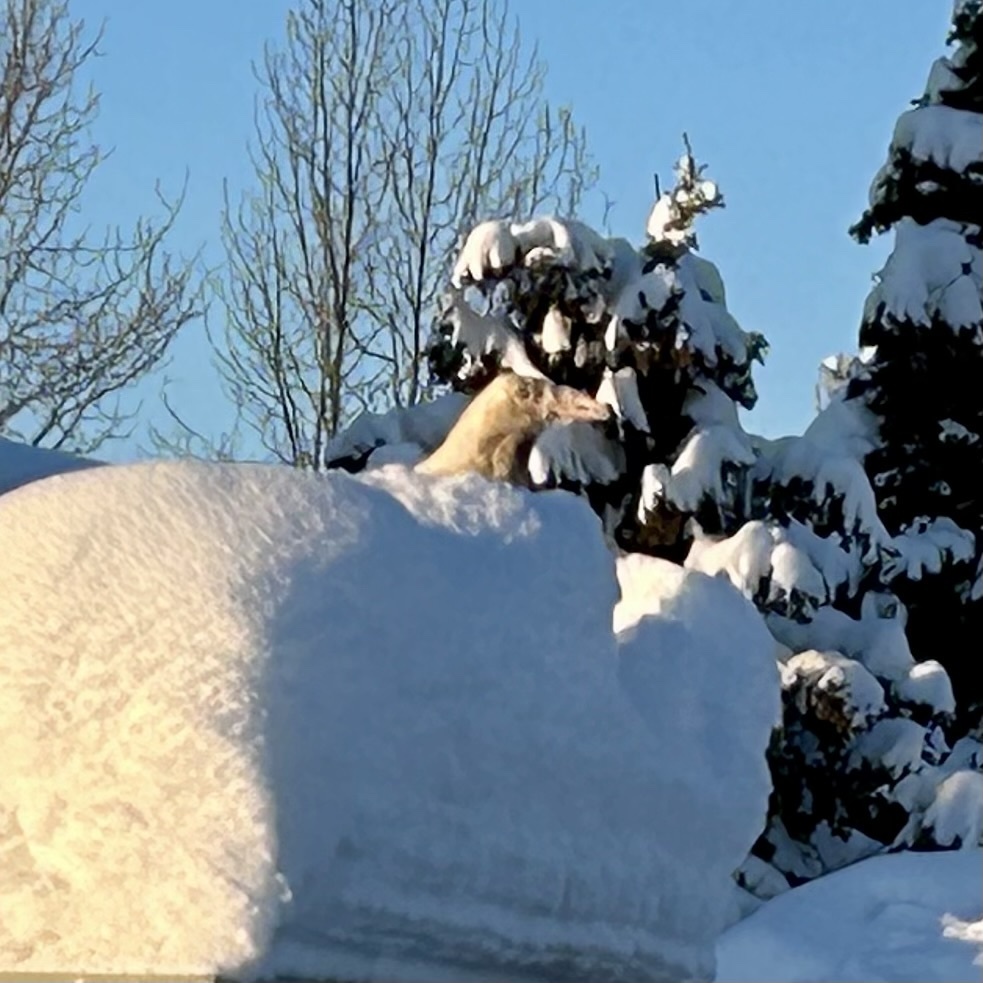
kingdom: Animalia
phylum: Chordata
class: Aves
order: Passeriformes
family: Corvidae
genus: Corvus
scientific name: Corvus corax
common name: Common raven
